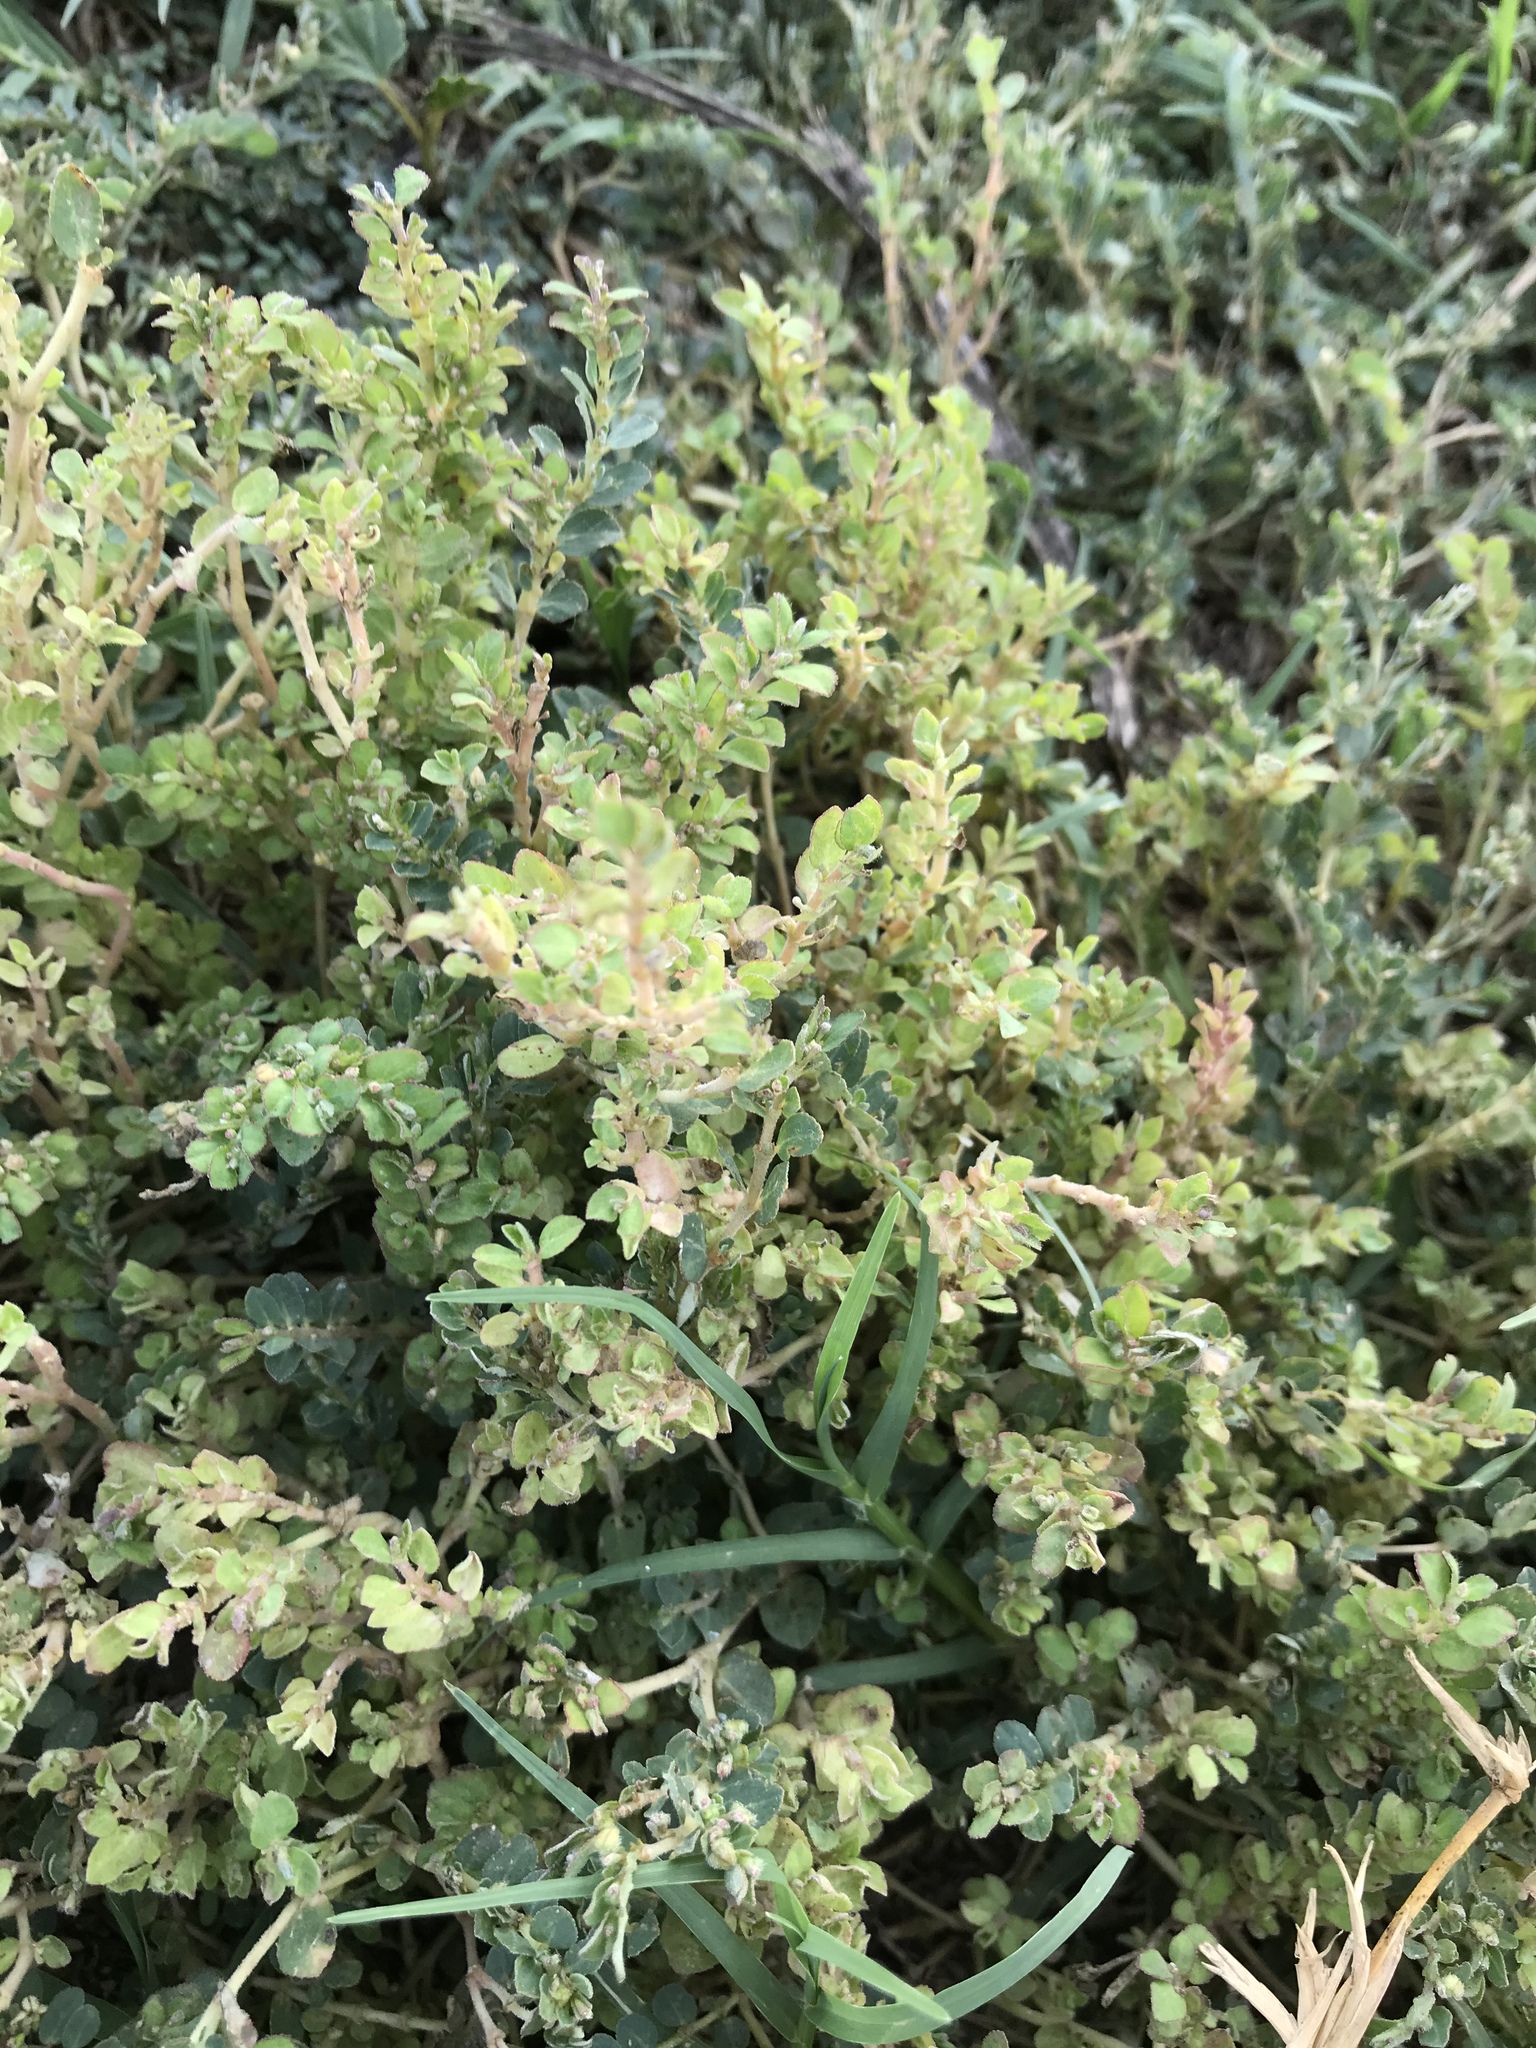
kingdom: Plantae
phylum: Tracheophyta
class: Magnoliopsida
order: Malpighiales
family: Euphorbiaceae
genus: Euphorbia
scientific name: Euphorbia prostrata
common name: Prostrate sandmat
